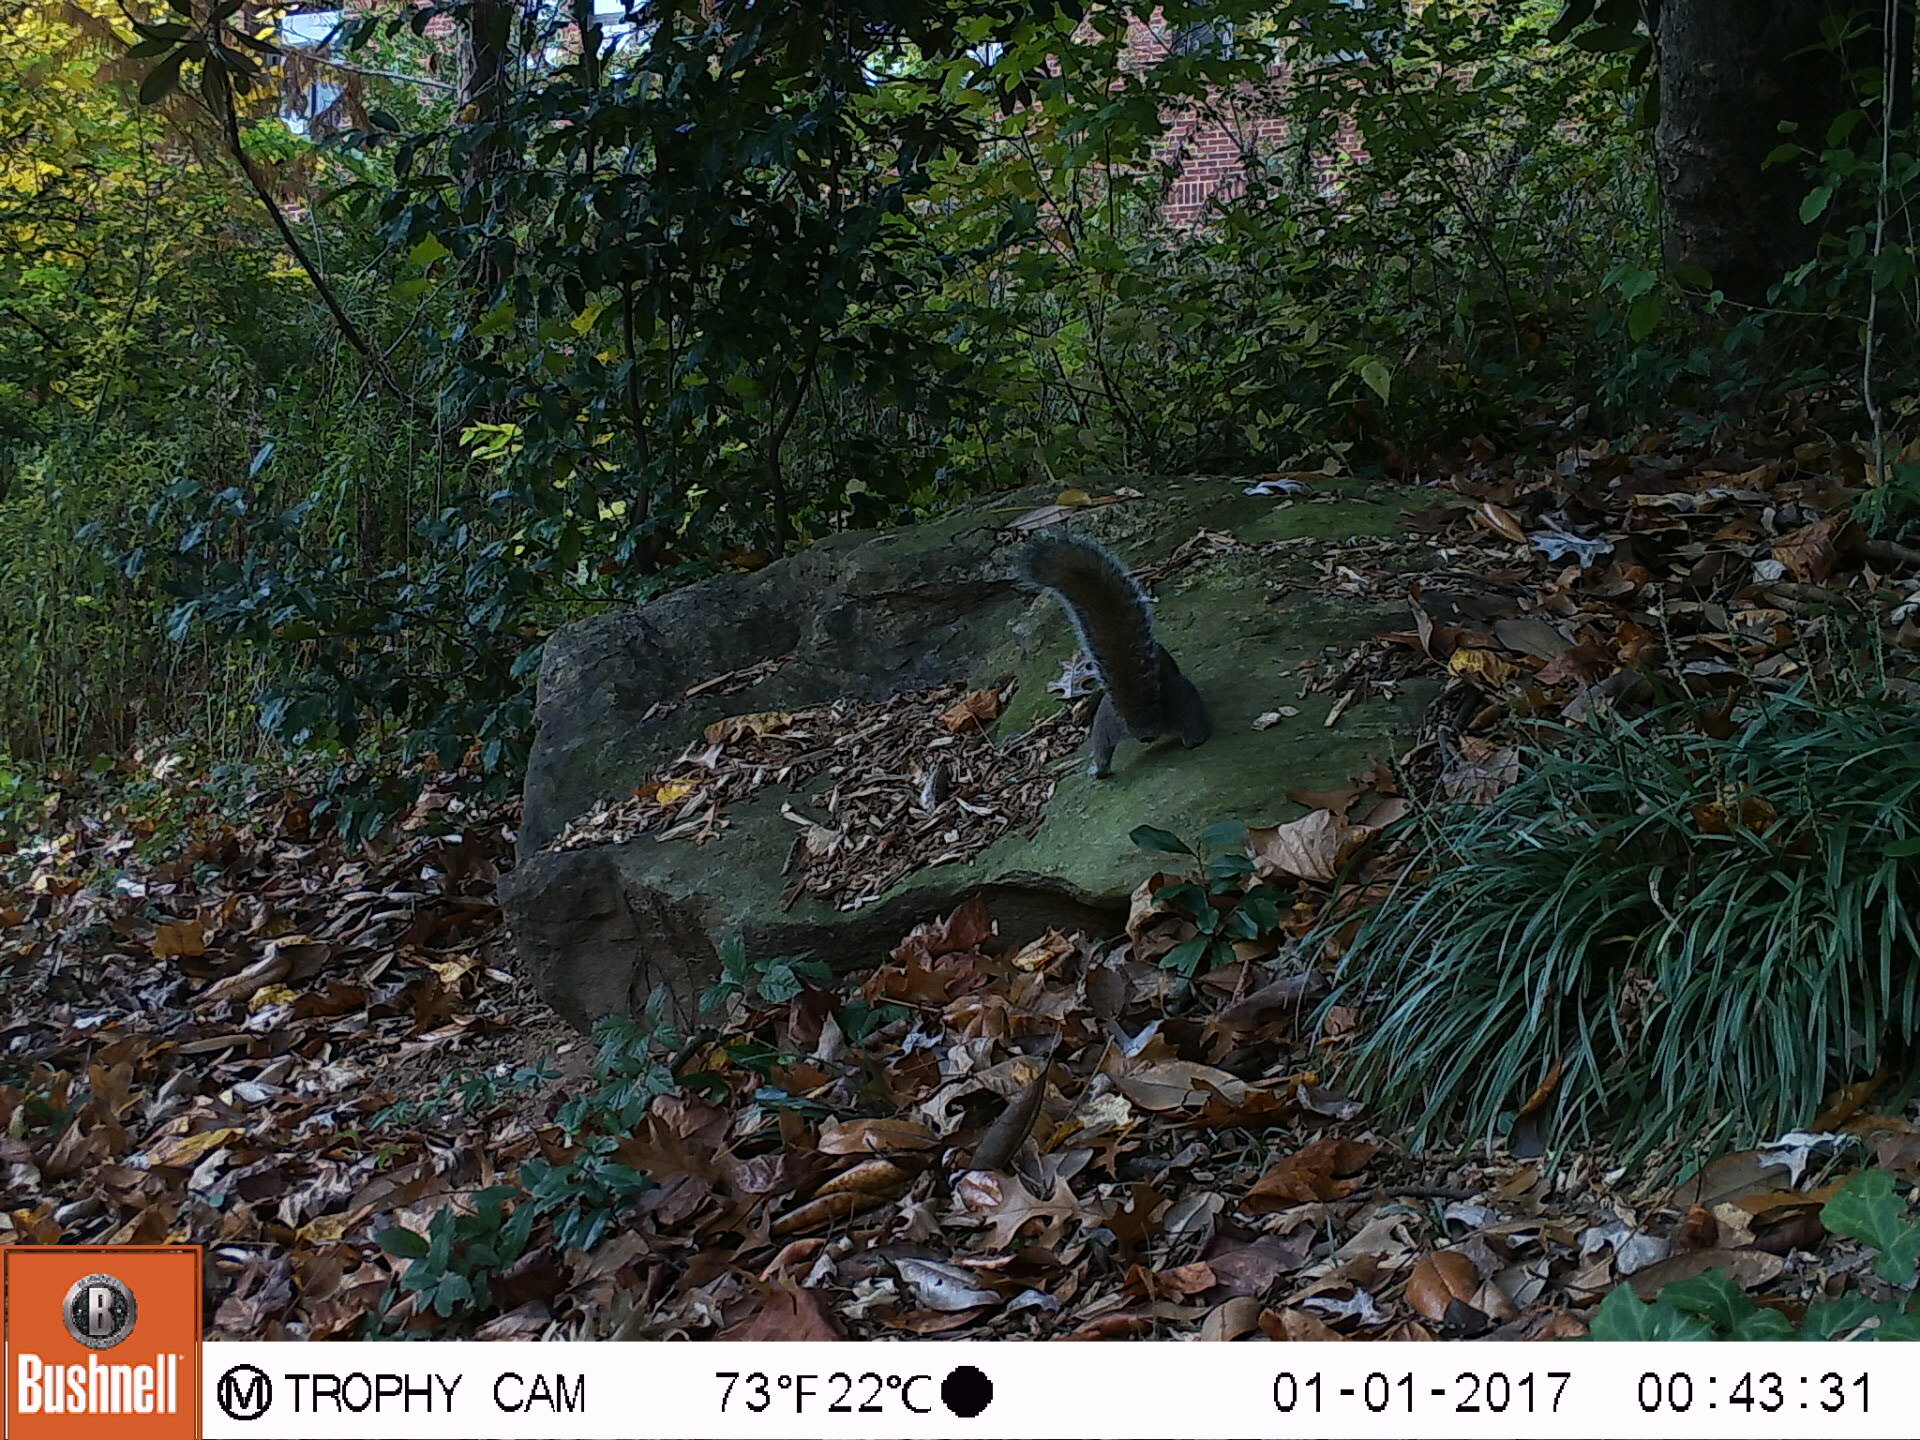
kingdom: Animalia
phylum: Chordata
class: Mammalia
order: Rodentia
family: Sciuridae
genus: Sciurus
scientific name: Sciurus carolinensis
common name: Eastern gray squirrel
